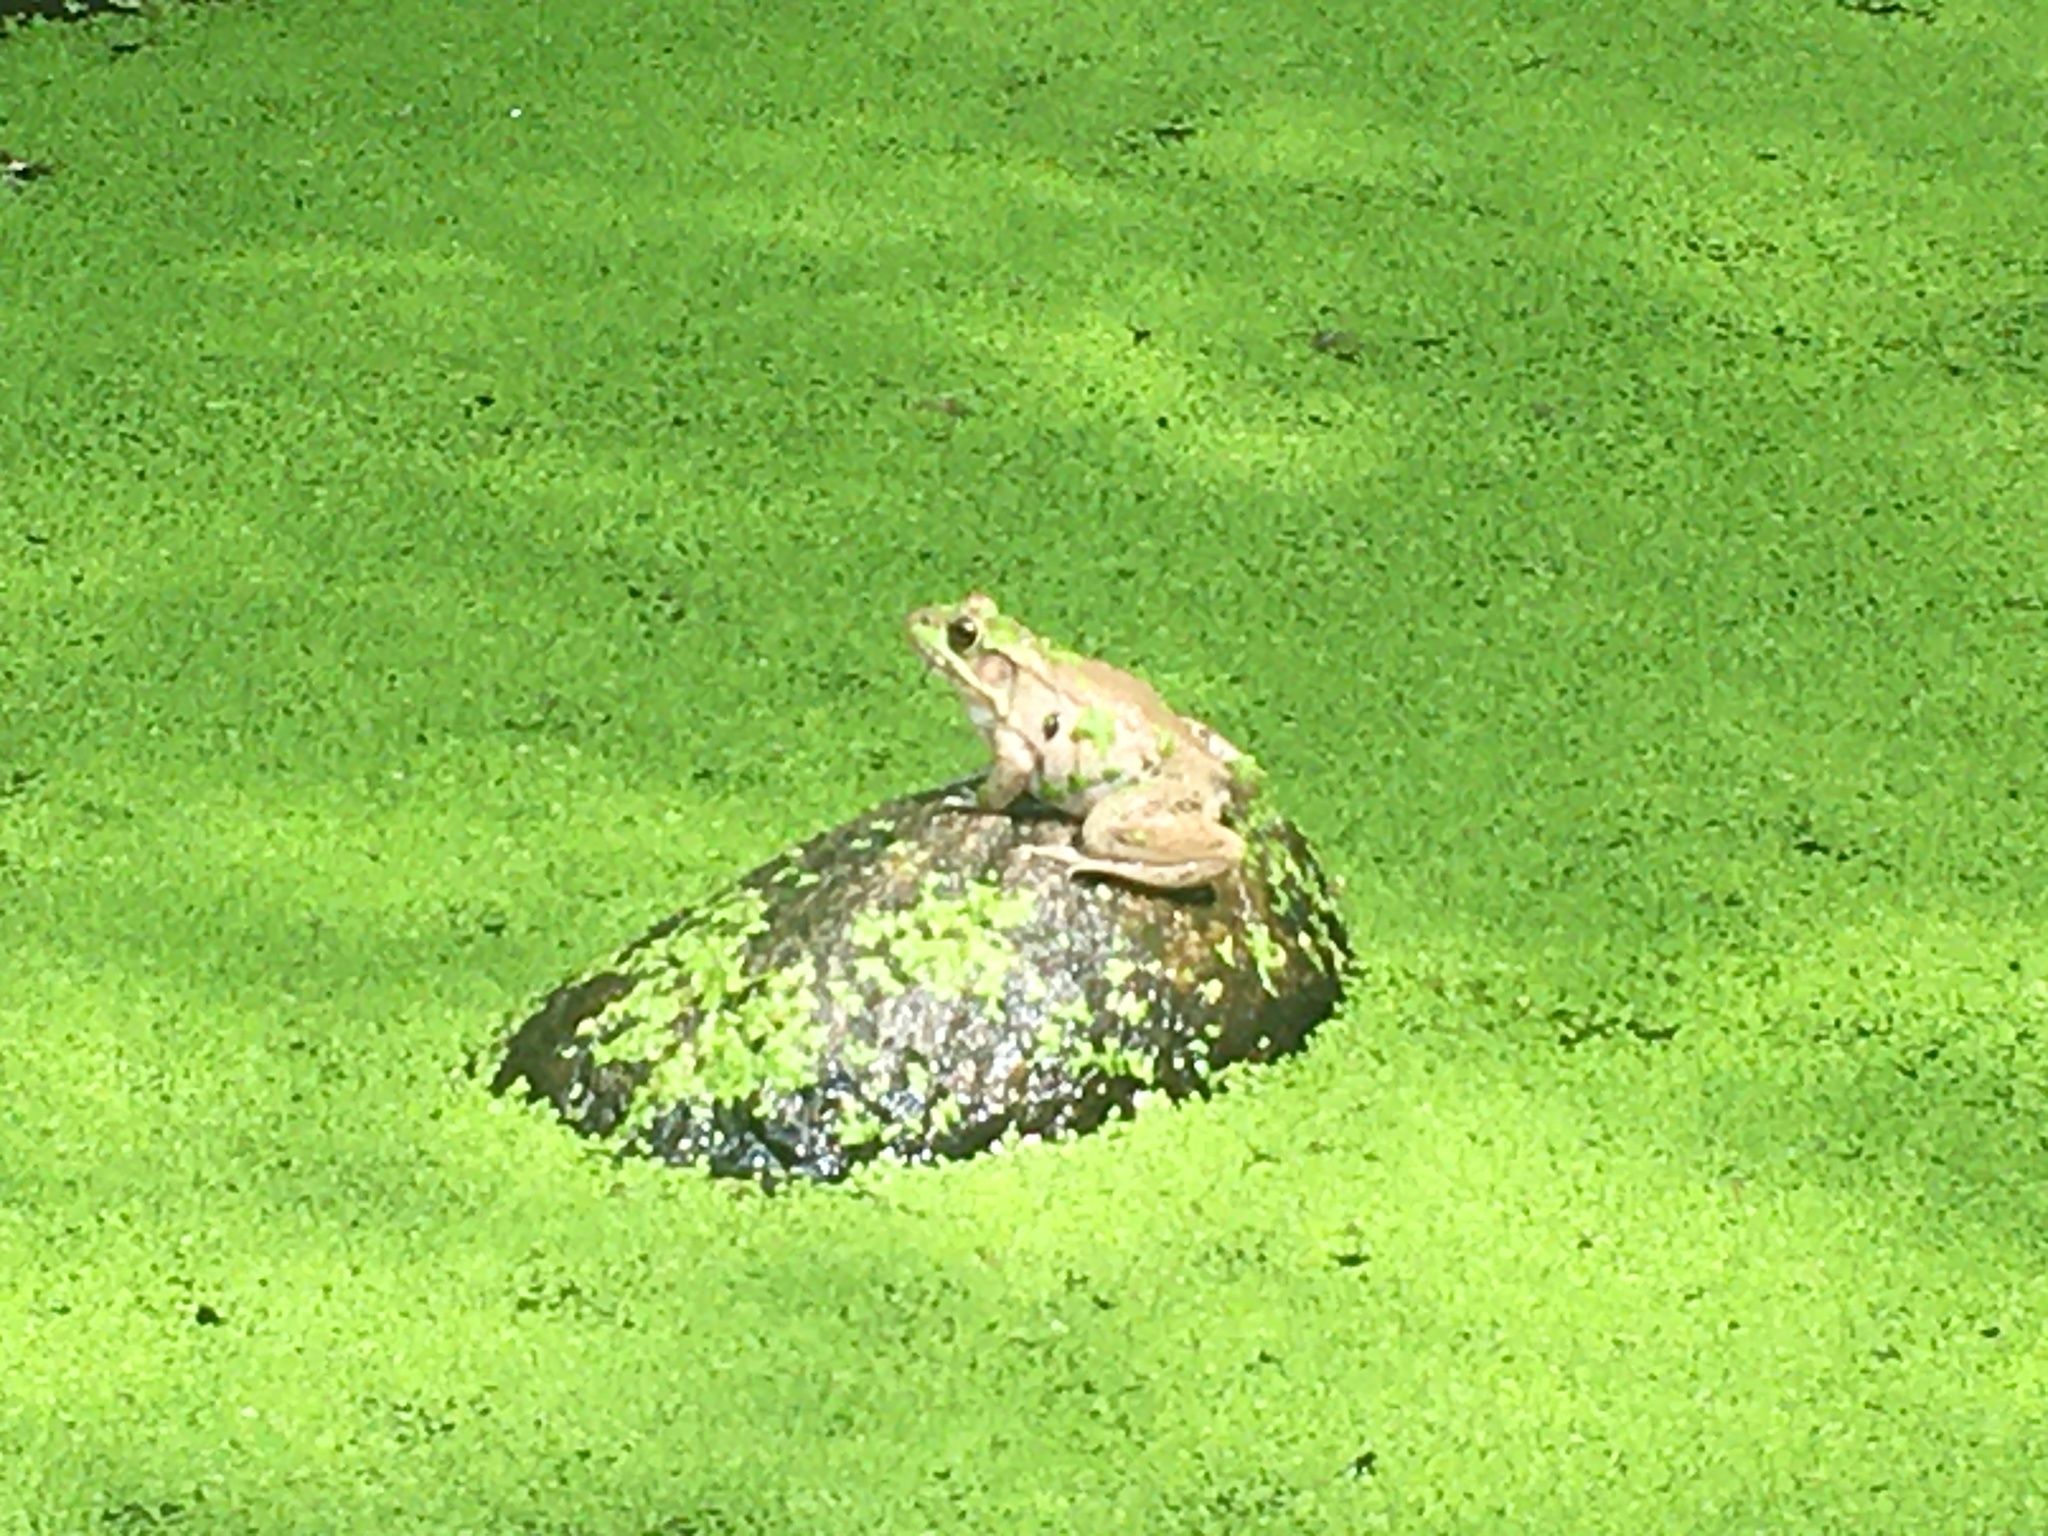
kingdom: Animalia
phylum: Chordata
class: Amphibia
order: Anura
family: Ranidae
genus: Lithobates
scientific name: Lithobates clamitans
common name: Green frog
